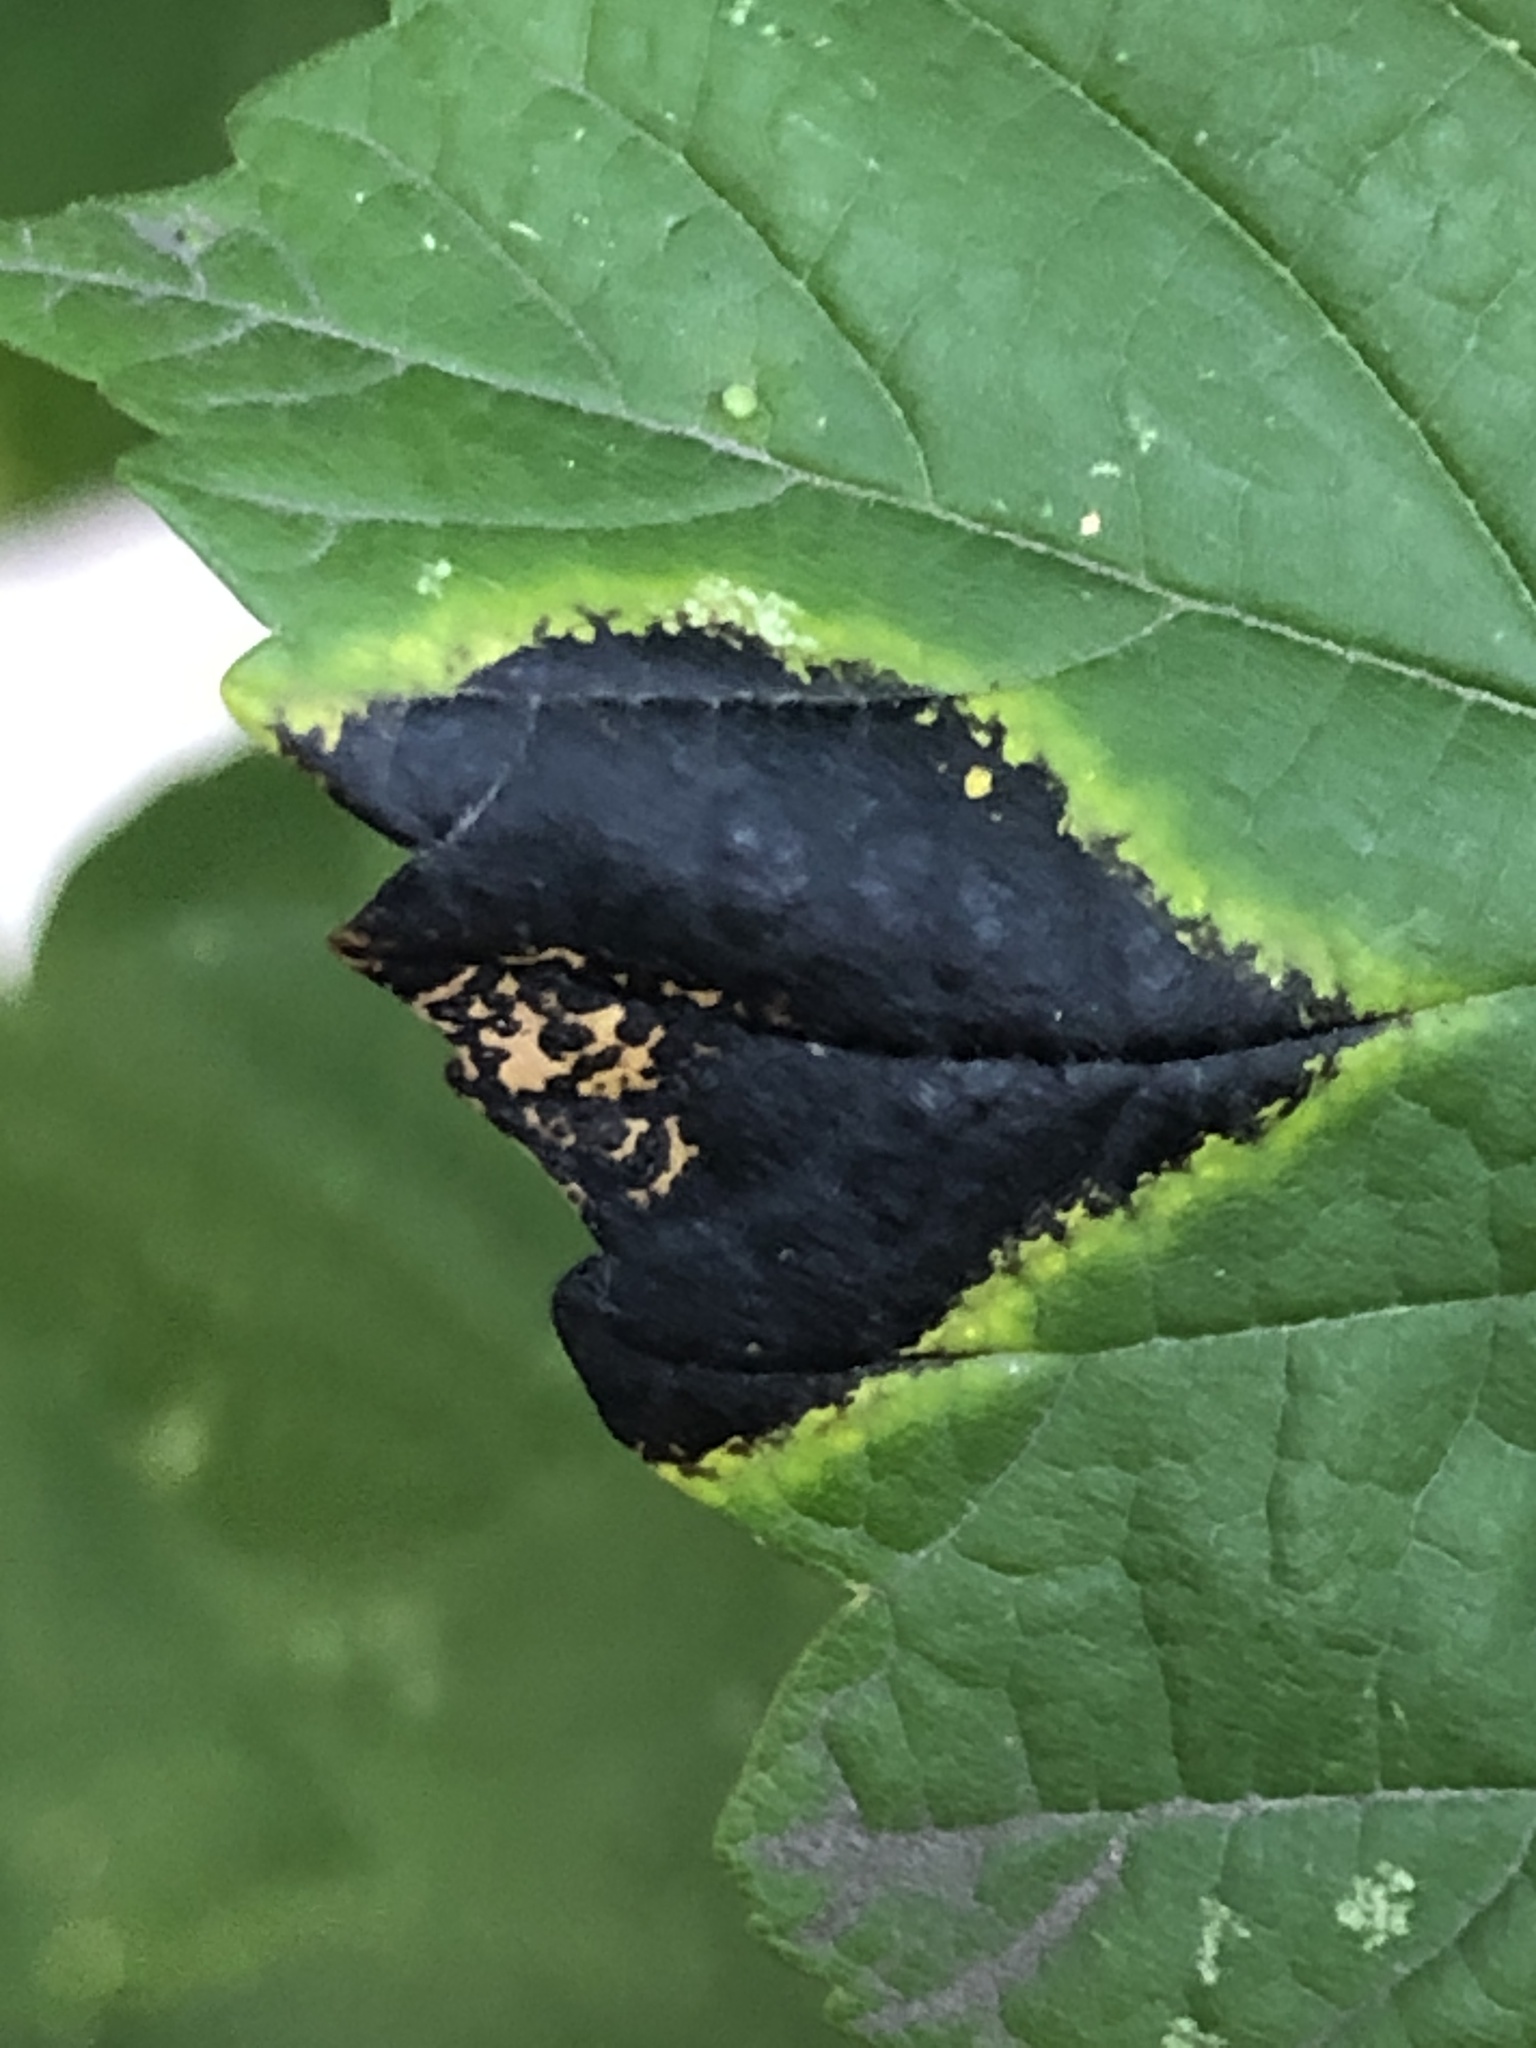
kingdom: Fungi
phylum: Ascomycota
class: Leotiomycetes
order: Rhytismatales
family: Rhytismataceae
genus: Rhytisma
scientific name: Rhytisma acerinum
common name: European tar spot
